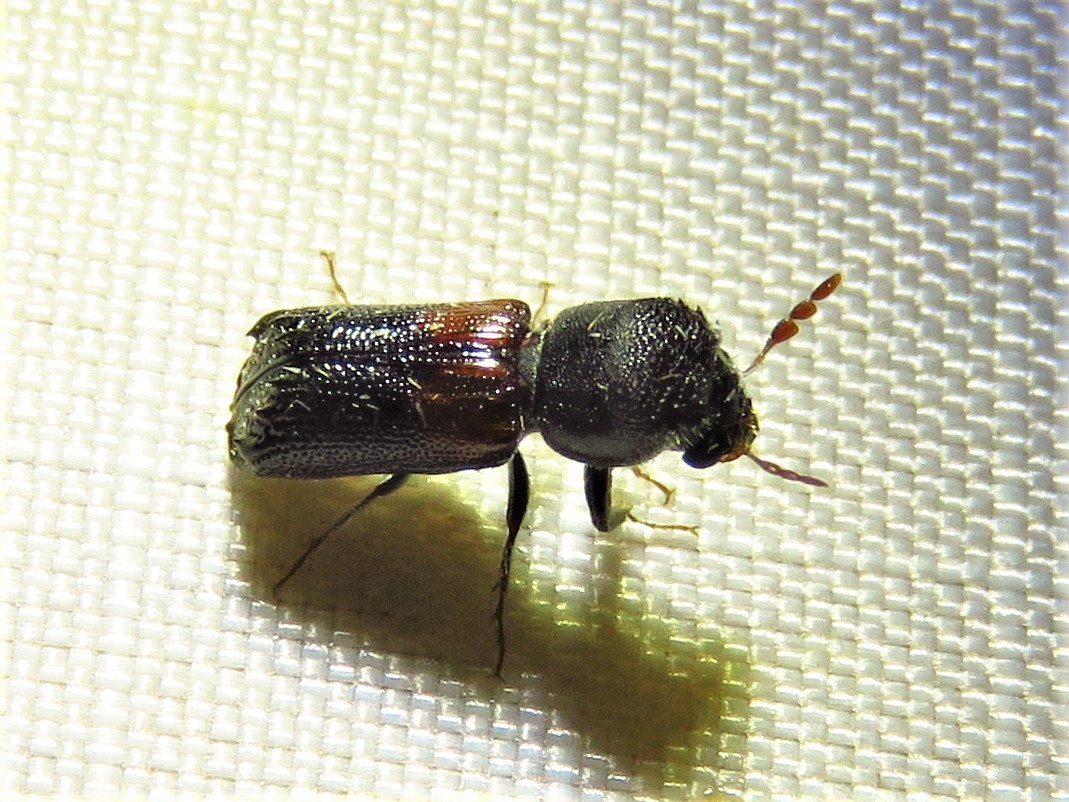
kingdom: Animalia
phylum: Arthropoda
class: Insecta
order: Coleoptera
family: Bostrichidae
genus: Xylobiops
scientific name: Xylobiops basilaris
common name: Red-shouldered bostrichid
